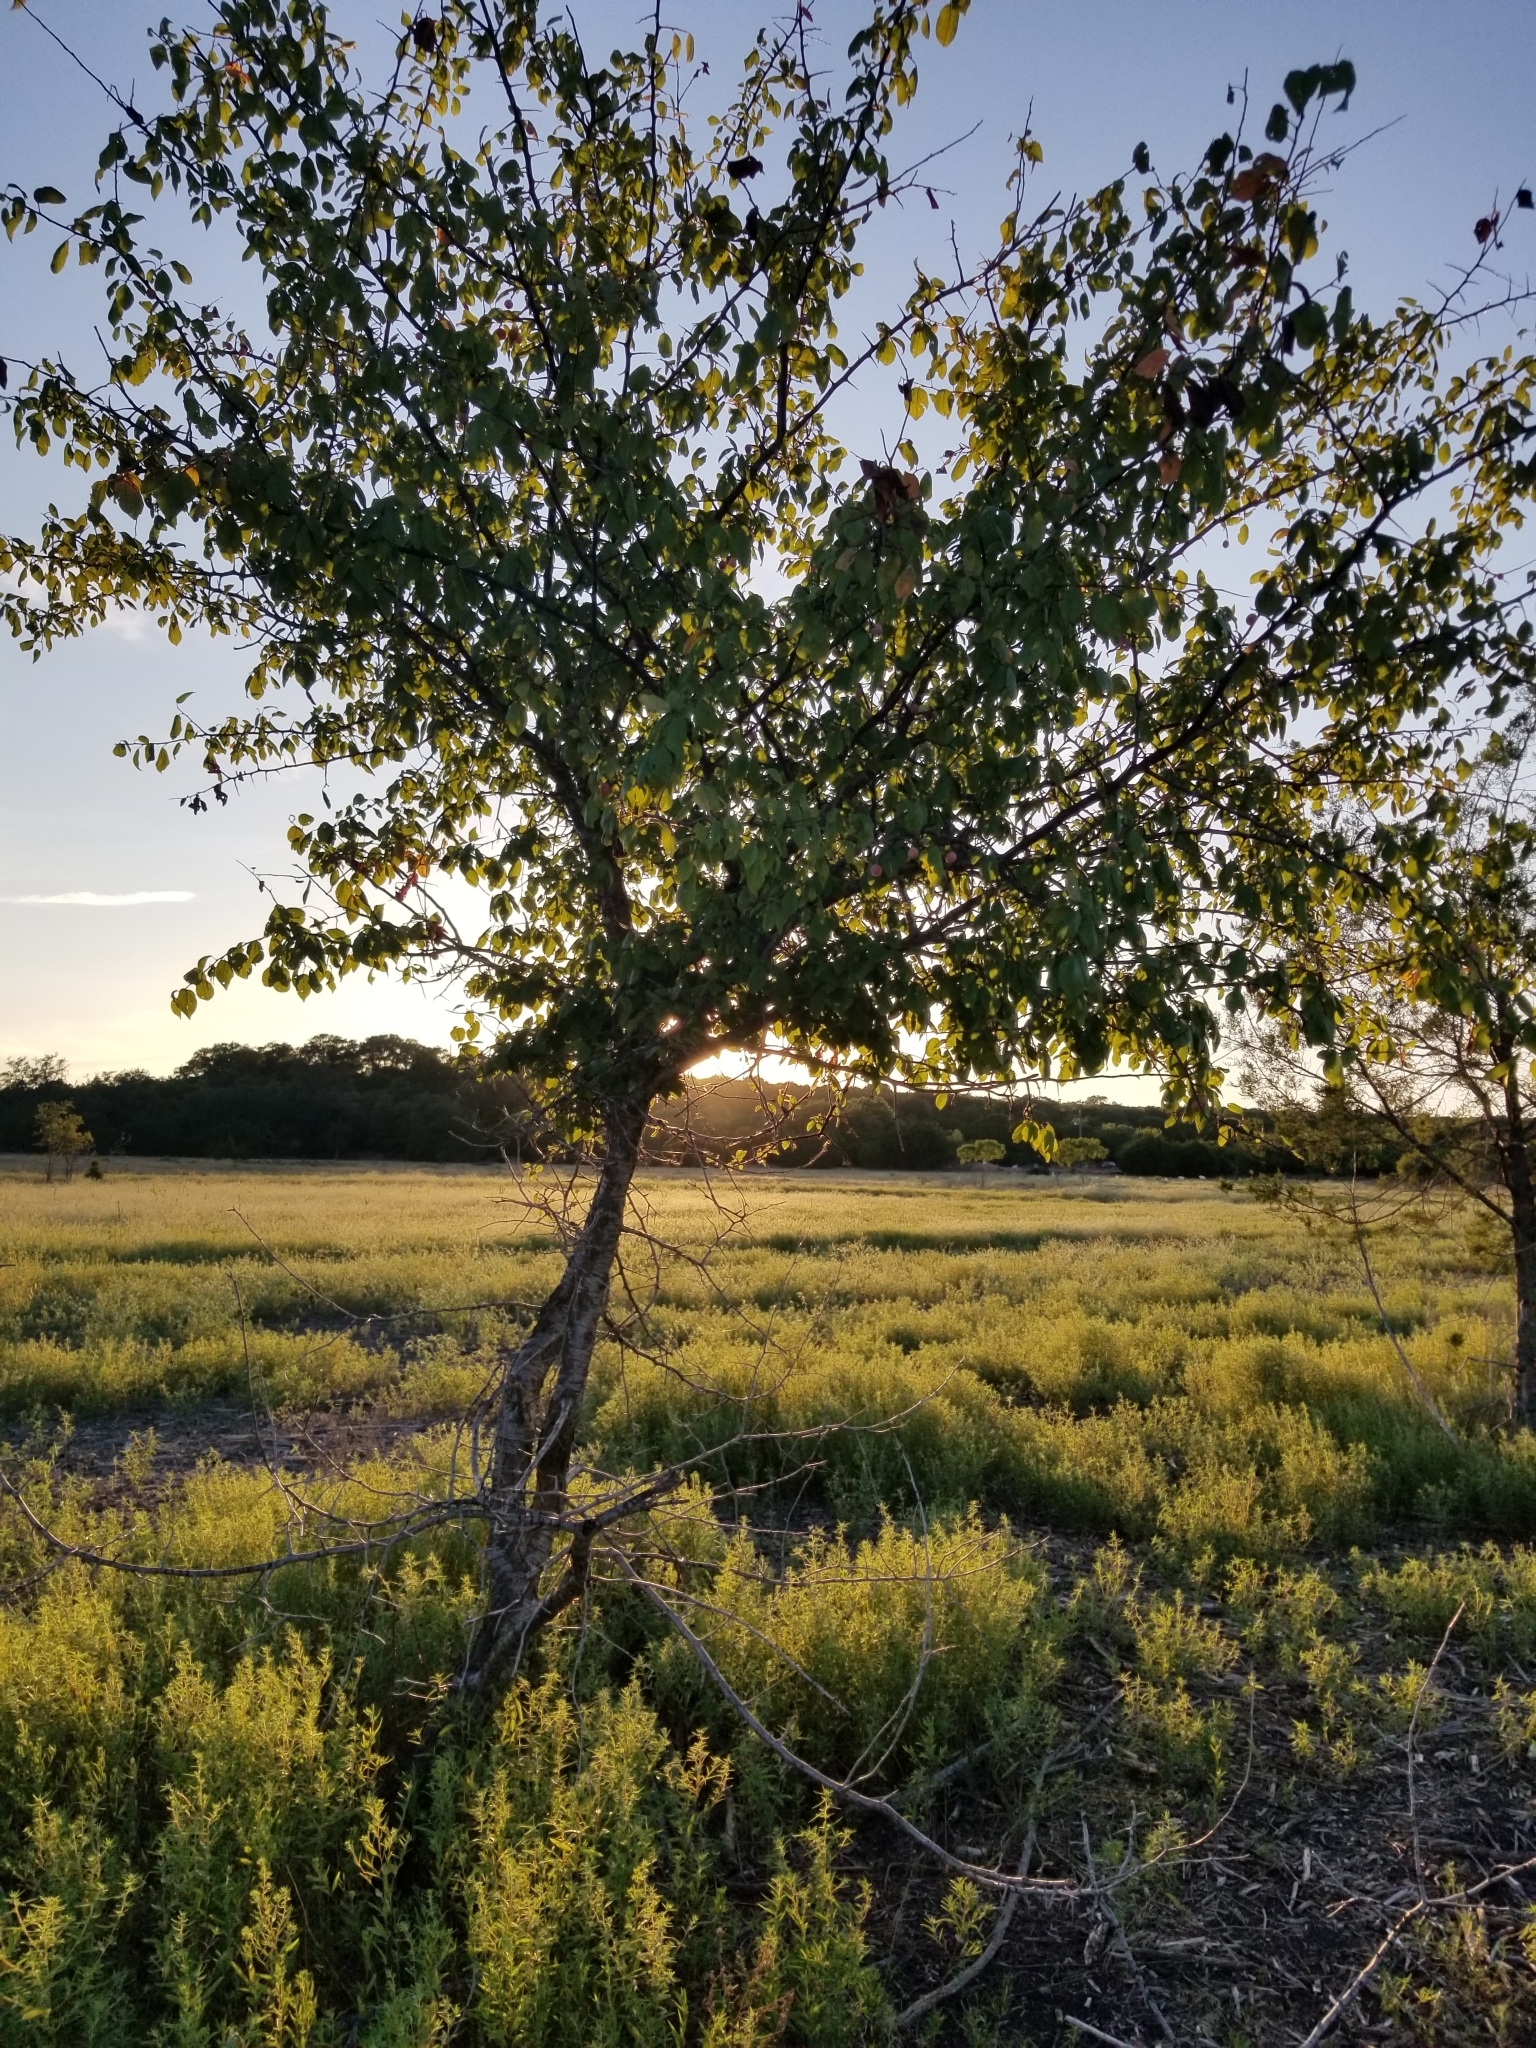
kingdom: Plantae
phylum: Tracheophyta
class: Magnoliopsida
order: Rosales
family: Rosaceae
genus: Prunus
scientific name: Prunus mexicana
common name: Mexican plum
